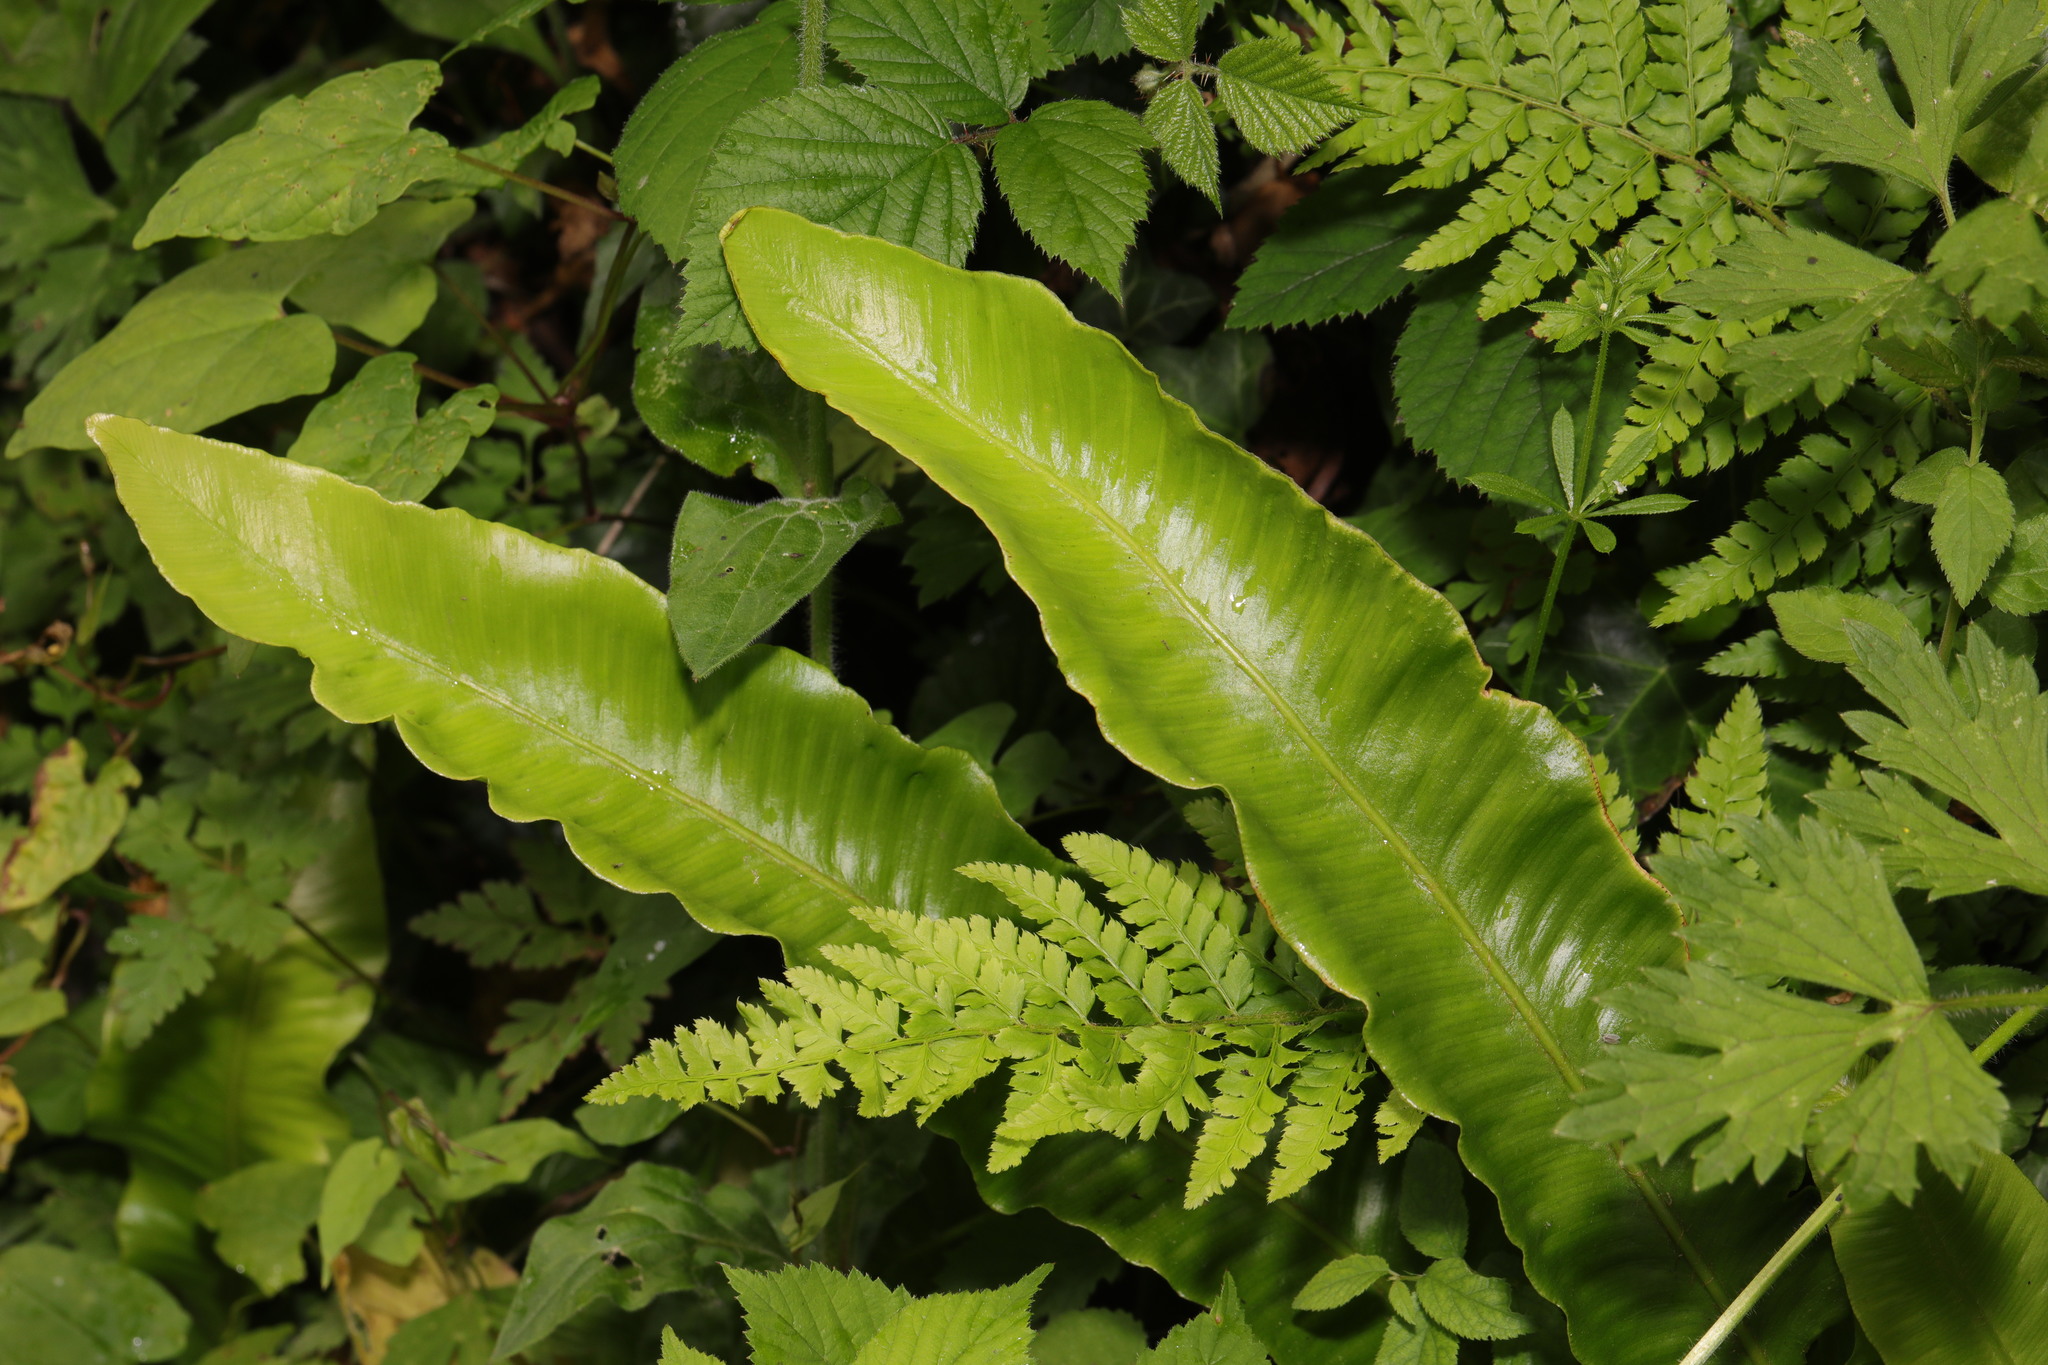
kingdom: Plantae
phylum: Tracheophyta
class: Polypodiopsida
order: Polypodiales
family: Aspleniaceae
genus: Asplenium
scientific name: Asplenium scolopendrium
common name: Hart's-tongue fern
